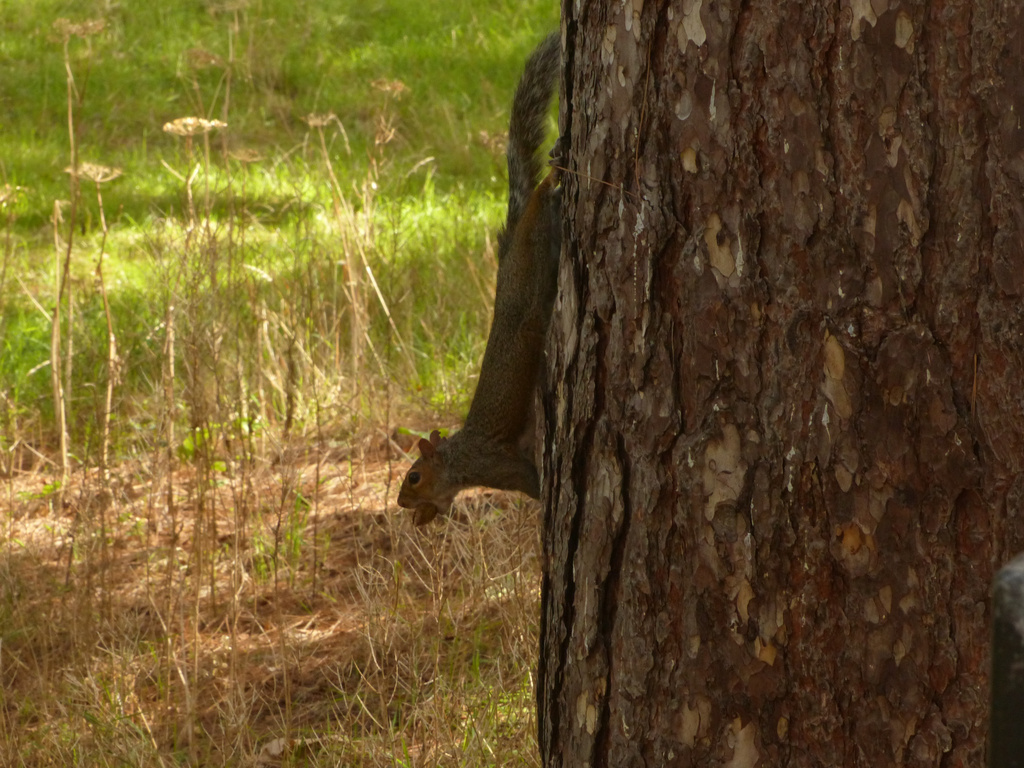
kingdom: Animalia
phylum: Chordata
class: Mammalia
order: Rodentia
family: Sciuridae
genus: Sciurus
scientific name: Sciurus carolinensis
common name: Eastern gray squirrel
